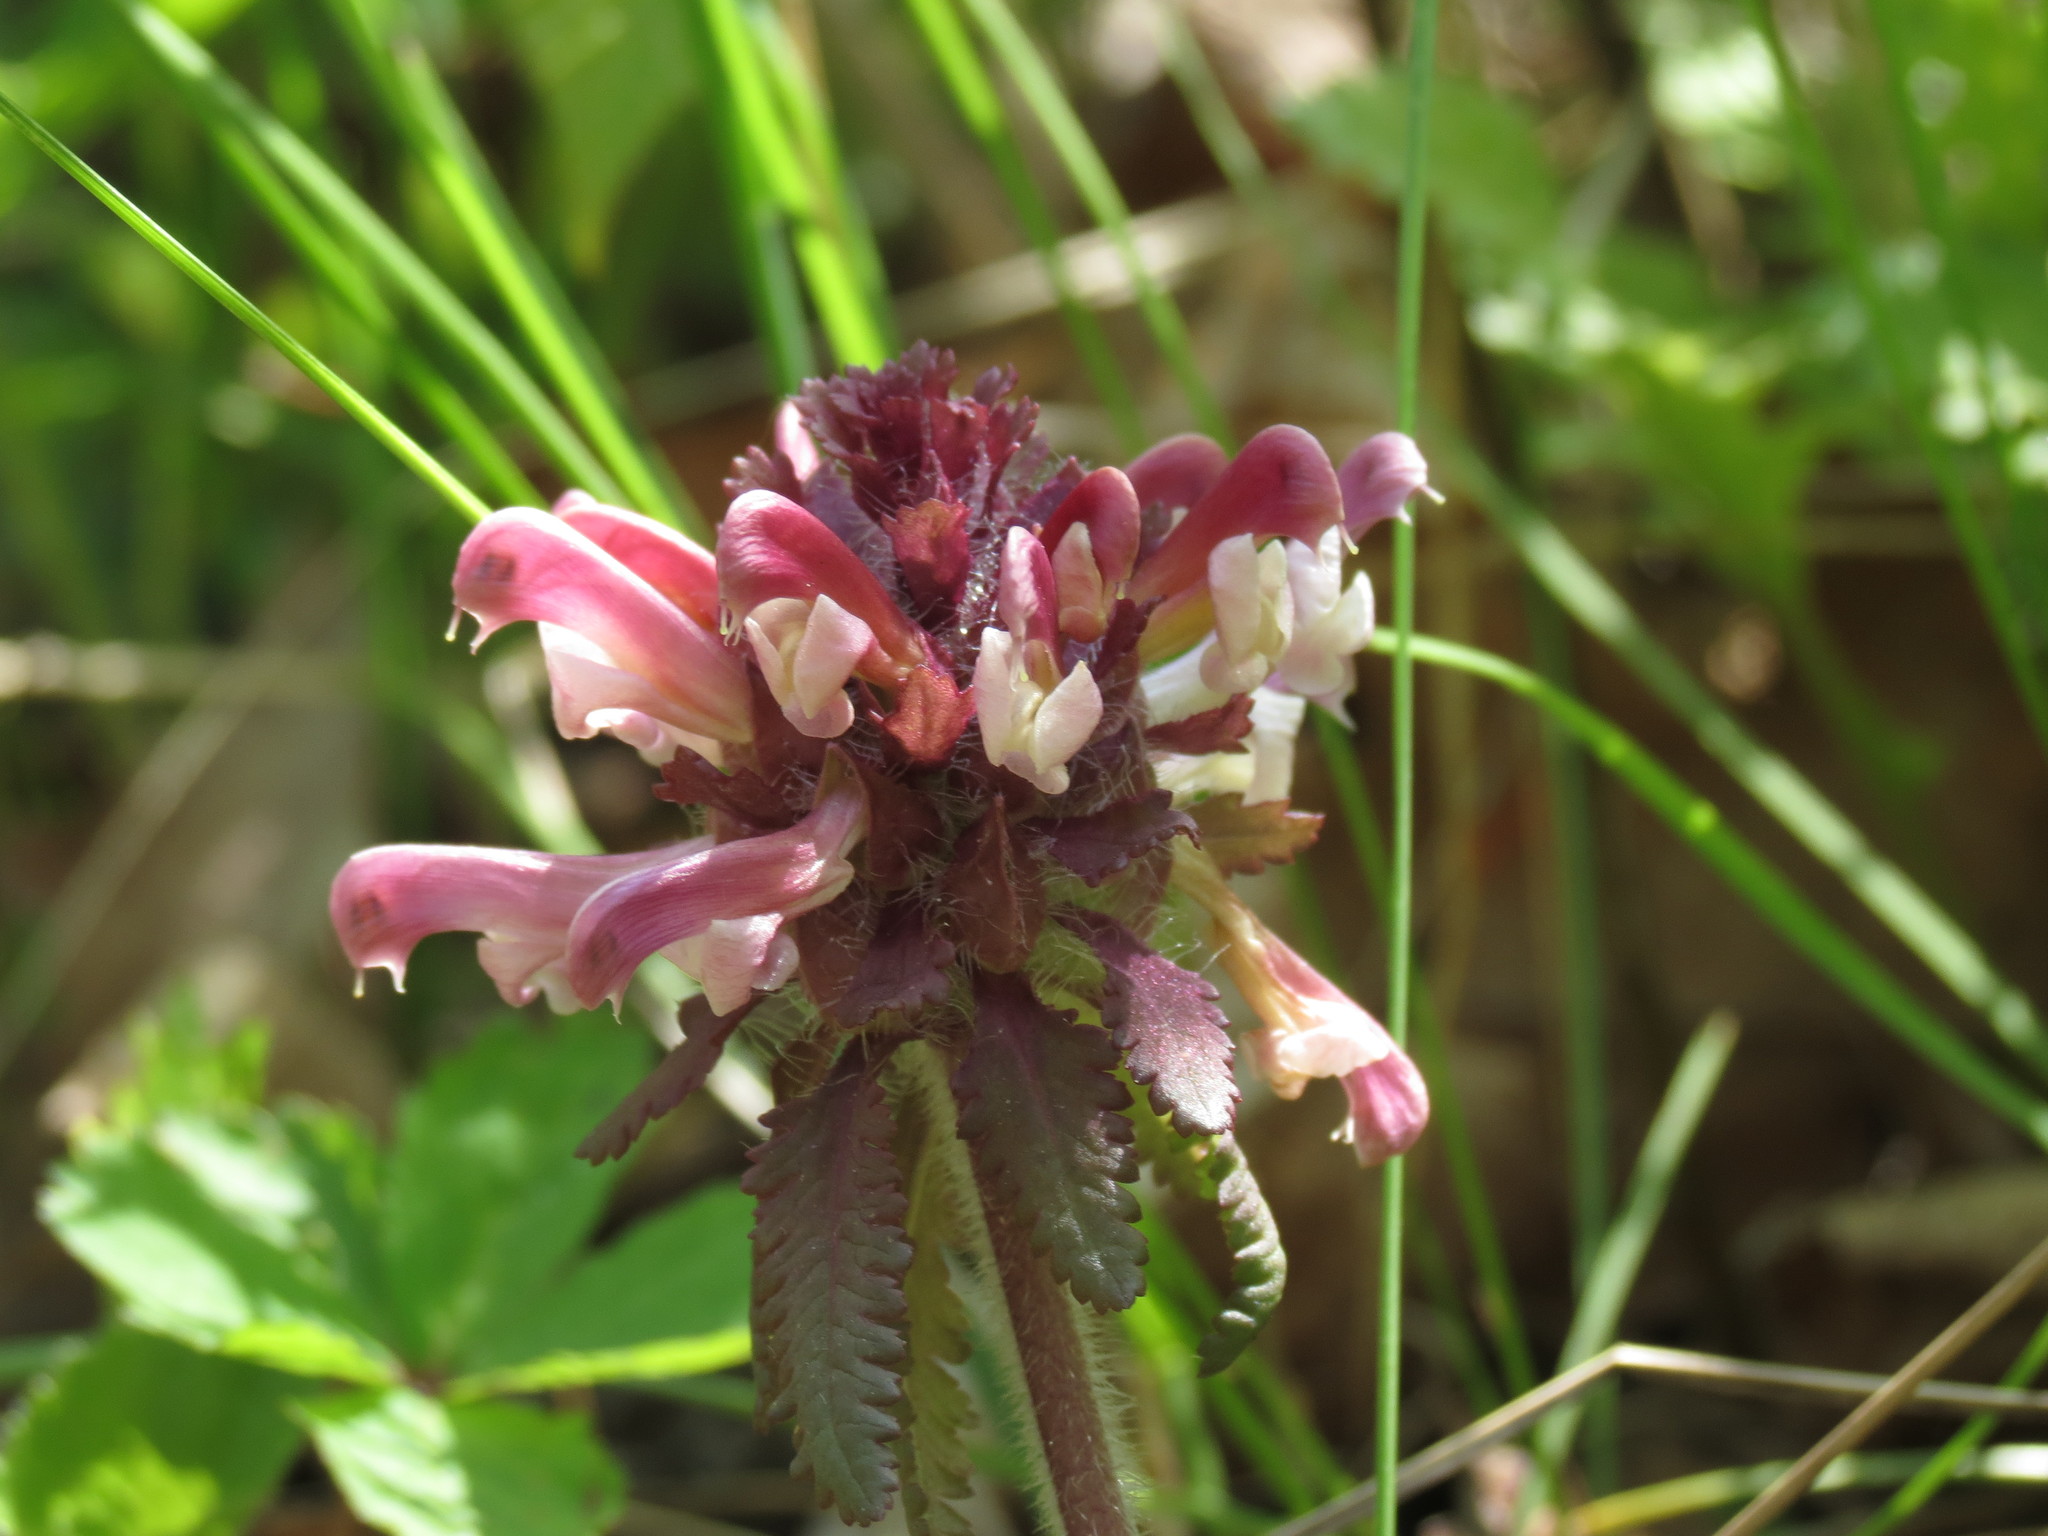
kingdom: Plantae
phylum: Tracheophyta
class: Magnoliopsida
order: Lamiales
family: Orobanchaceae
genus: Pedicularis
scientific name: Pedicularis canadensis
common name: Early lousewort
